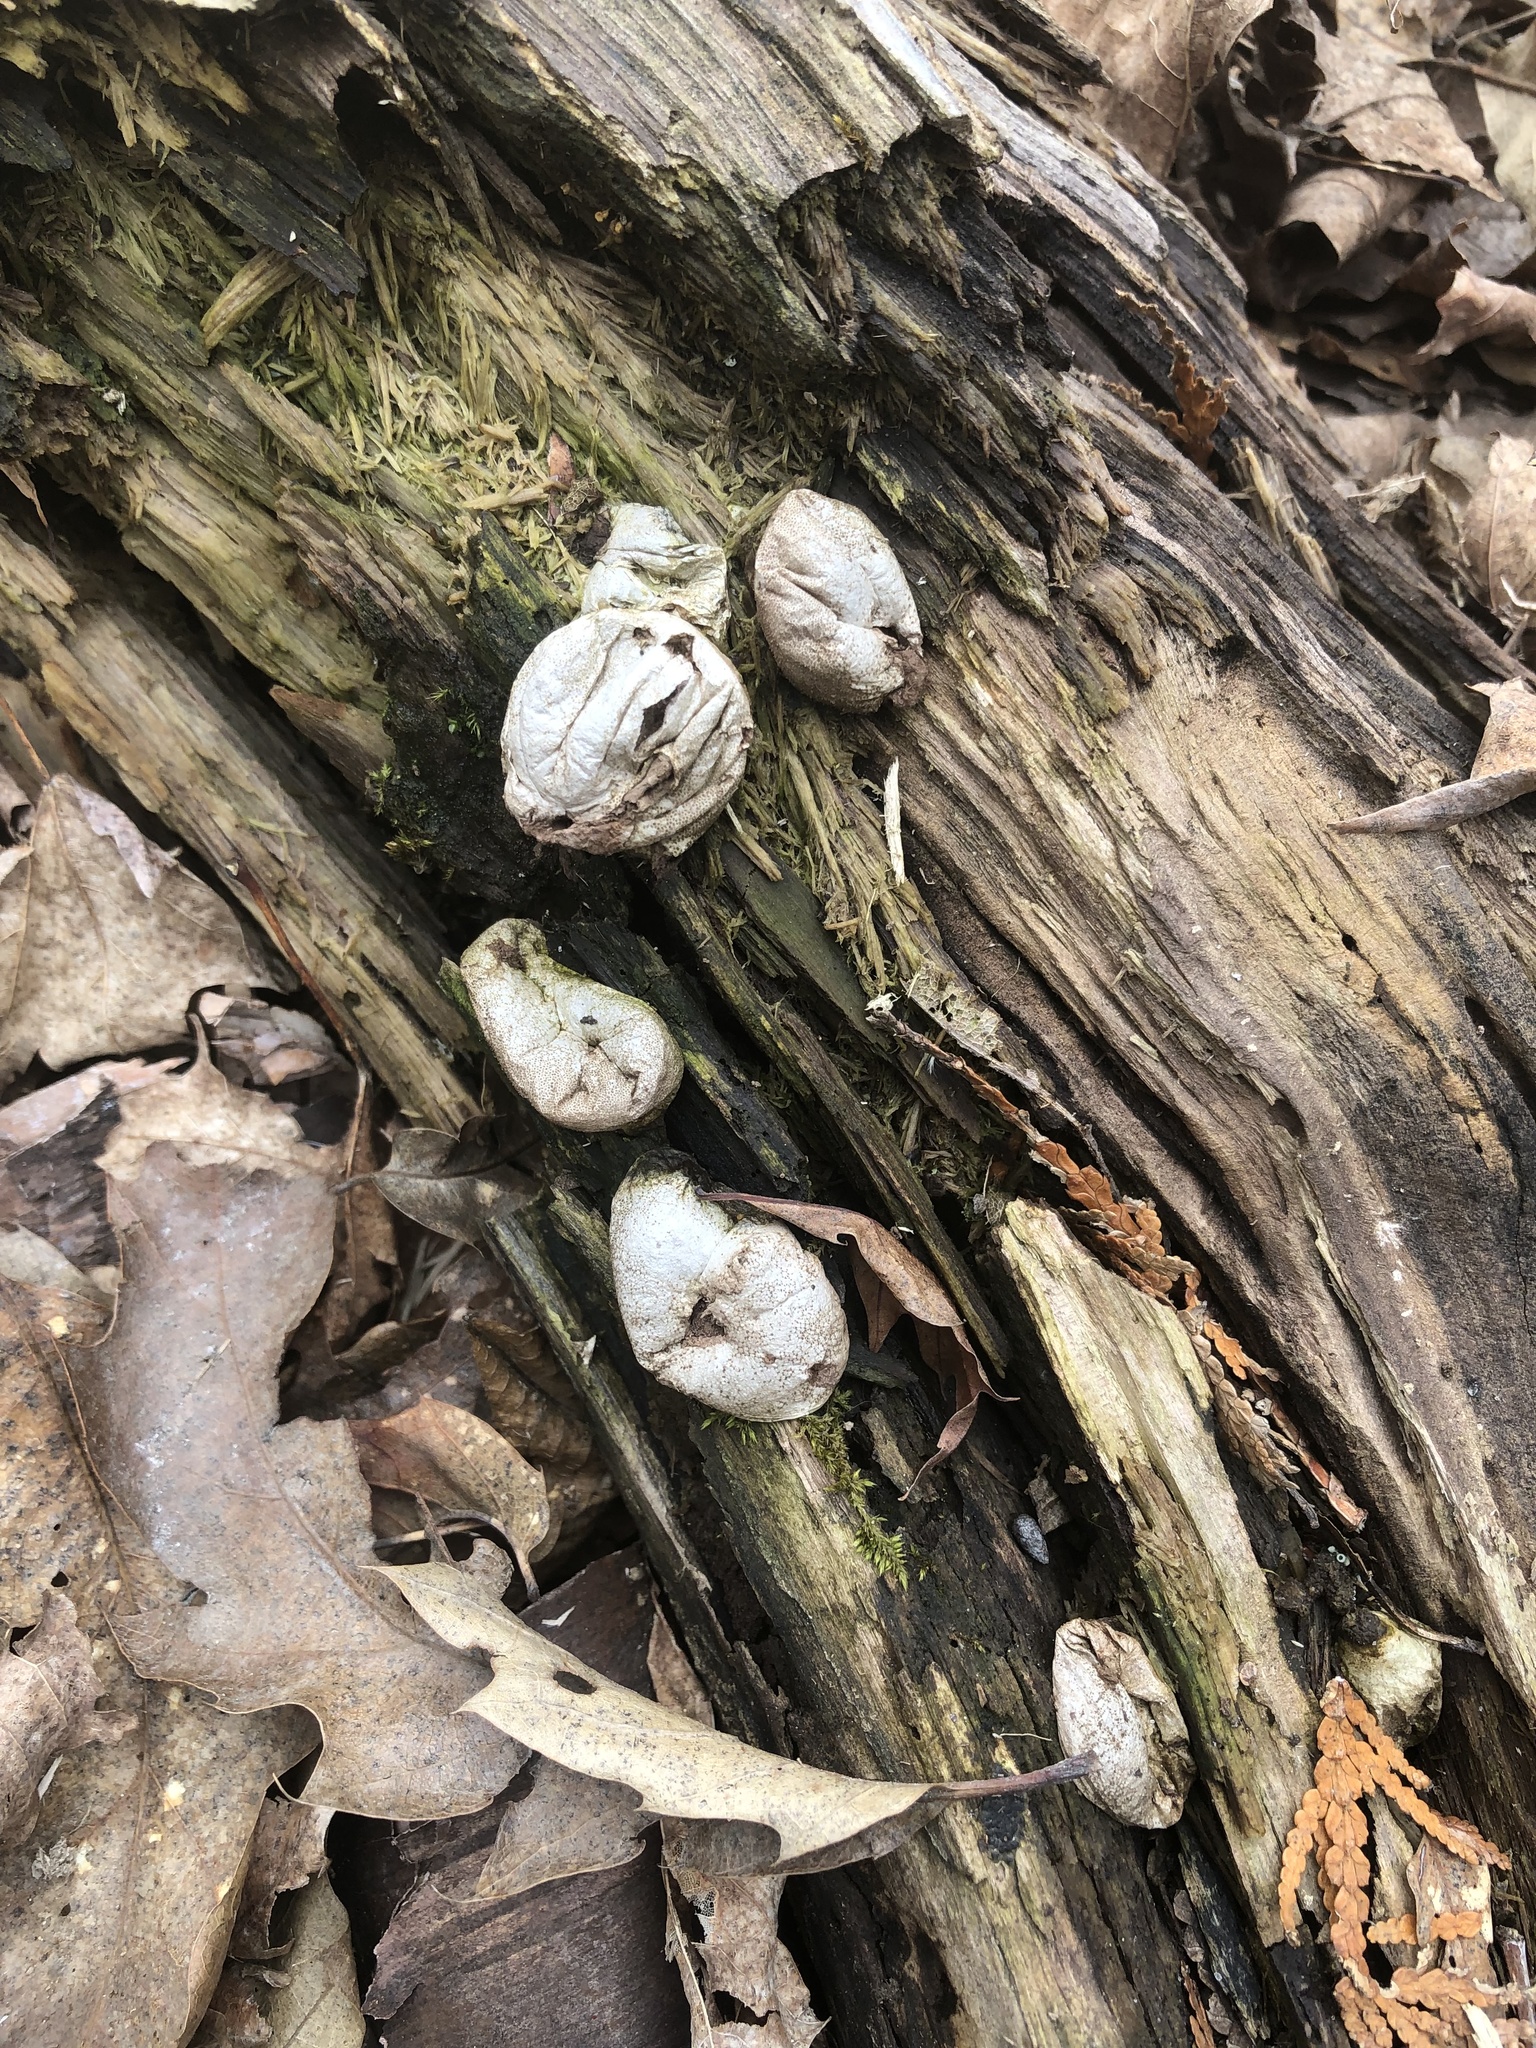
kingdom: Fungi
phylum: Basidiomycota
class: Agaricomycetes
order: Agaricales
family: Lycoperdaceae
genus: Apioperdon
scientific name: Apioperdon pyriforme
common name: Pear-shaped puffball
